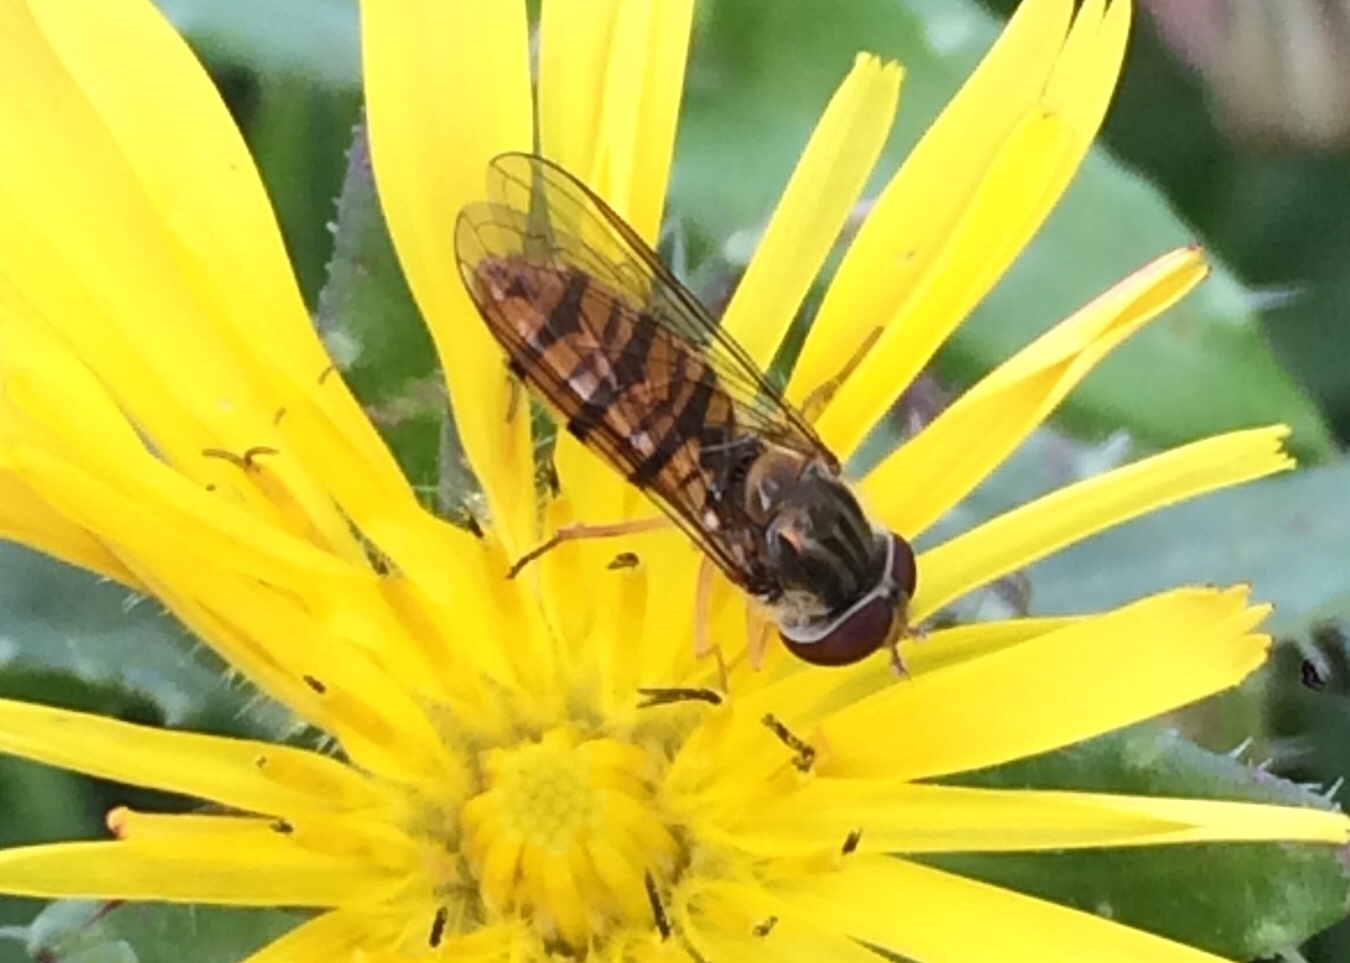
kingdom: Animalia
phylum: Arthropoda
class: Insecta
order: Diptera
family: Syrphidae
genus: Episyrphus
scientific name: Episyrphus balteatus
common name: Marmalade hoverfly
